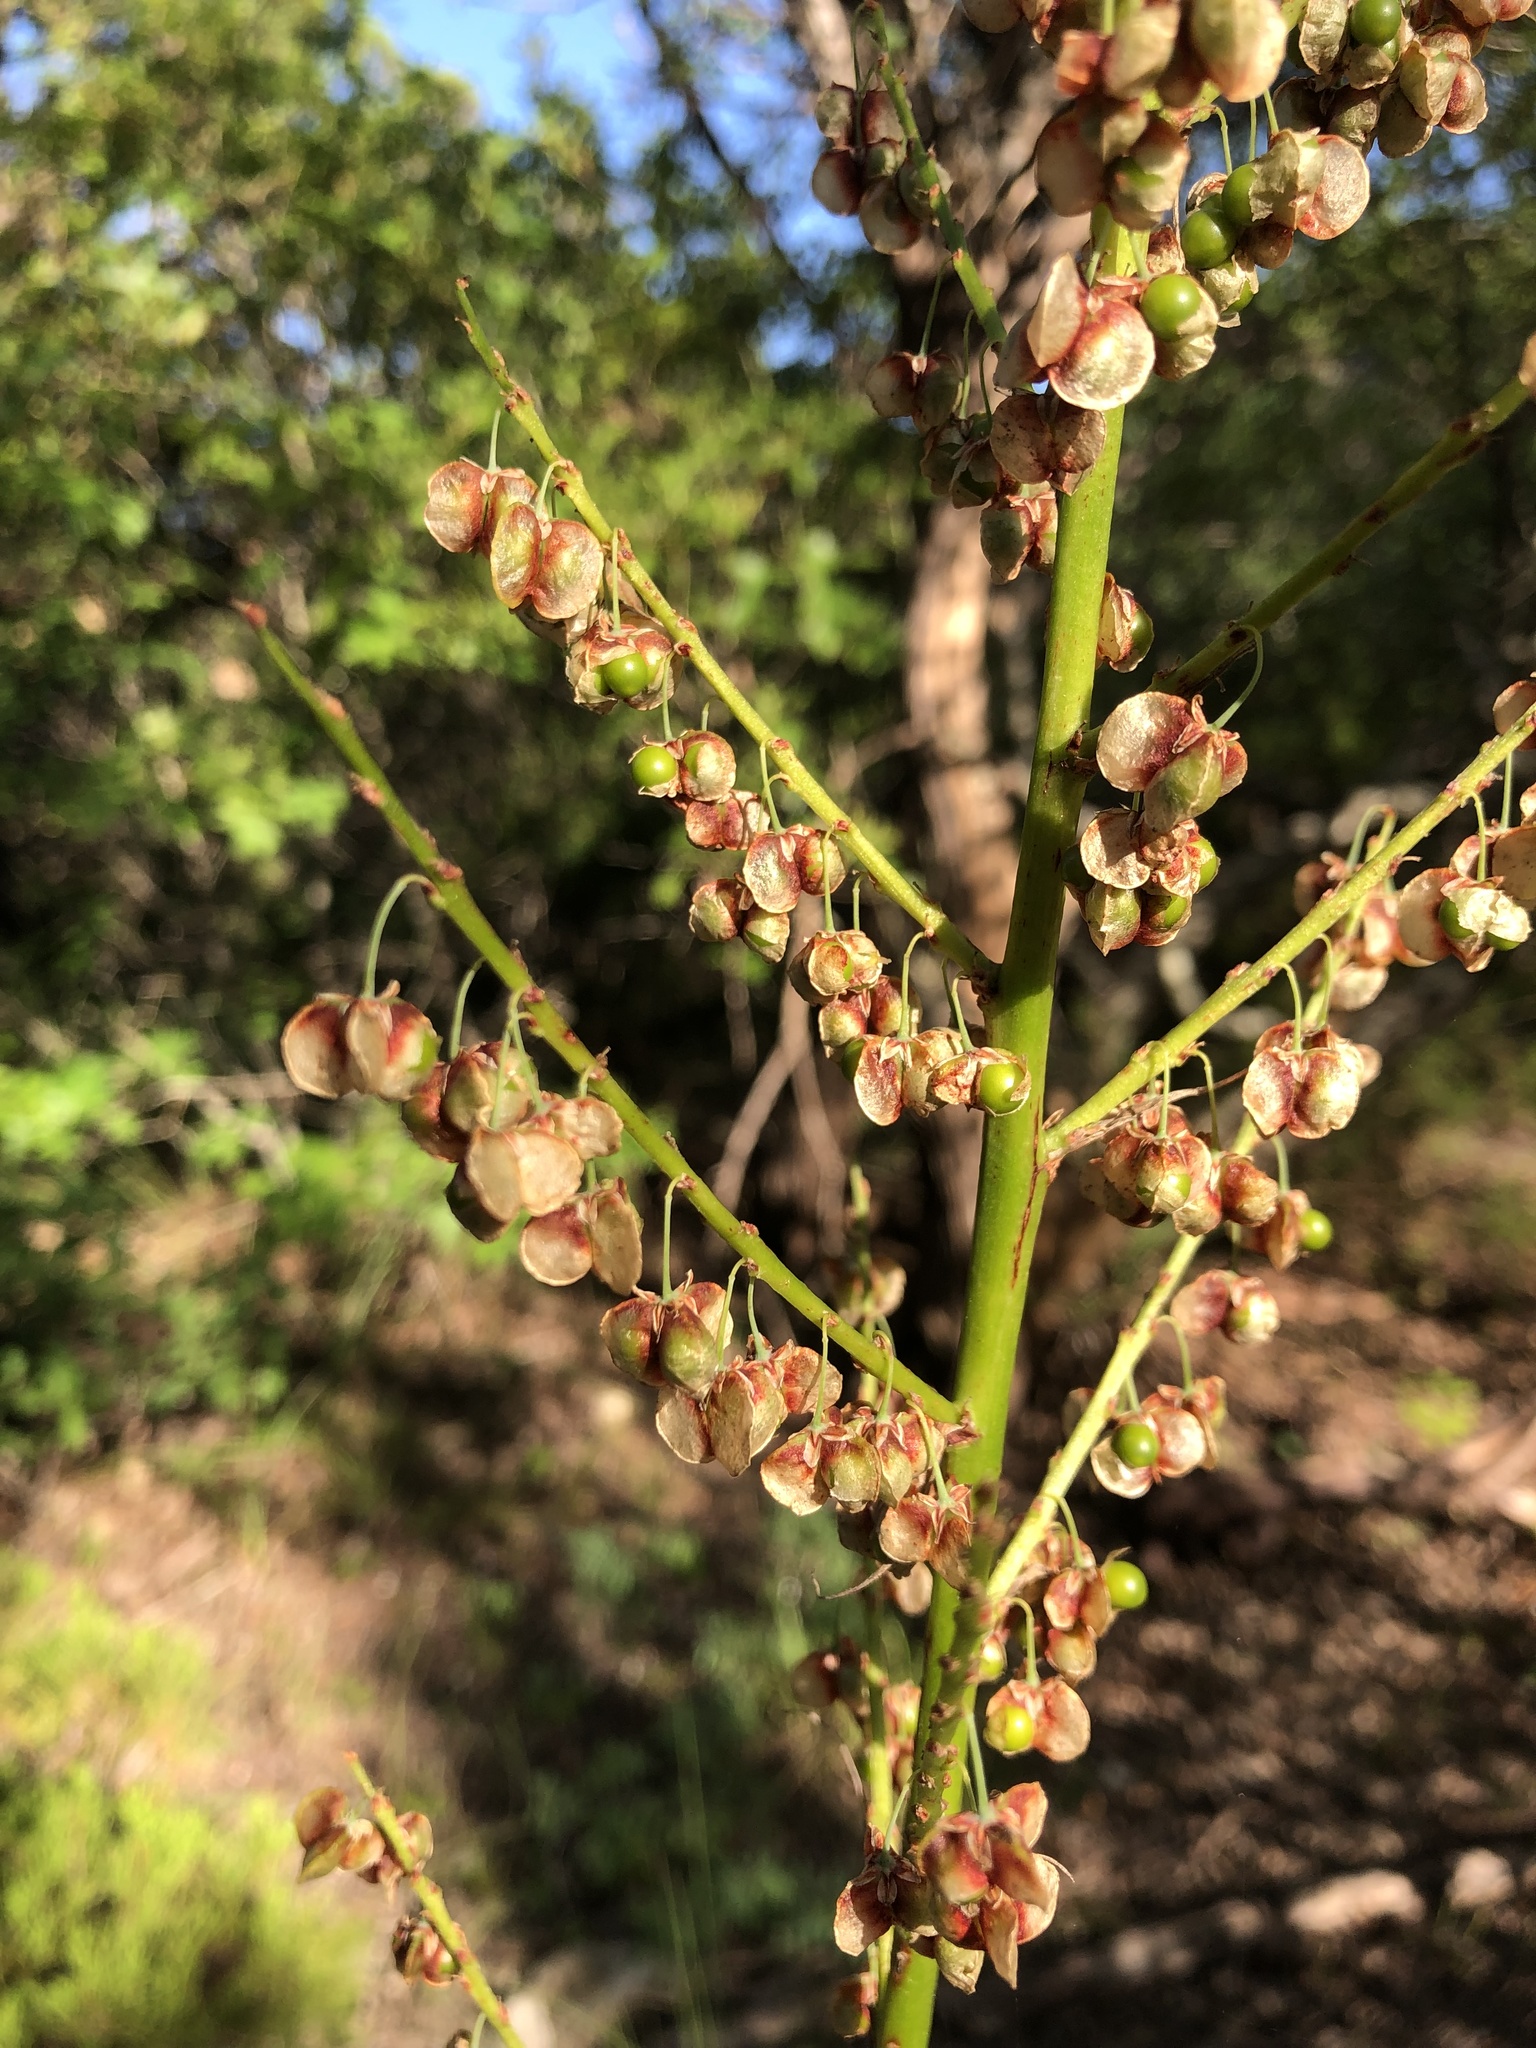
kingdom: Plantae
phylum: Tracheophyta
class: Liliopsida
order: Asparagales
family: Asparagaceae
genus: Nolina
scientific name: Nolina lindheimeriana
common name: Lindheimer's bear-grass
